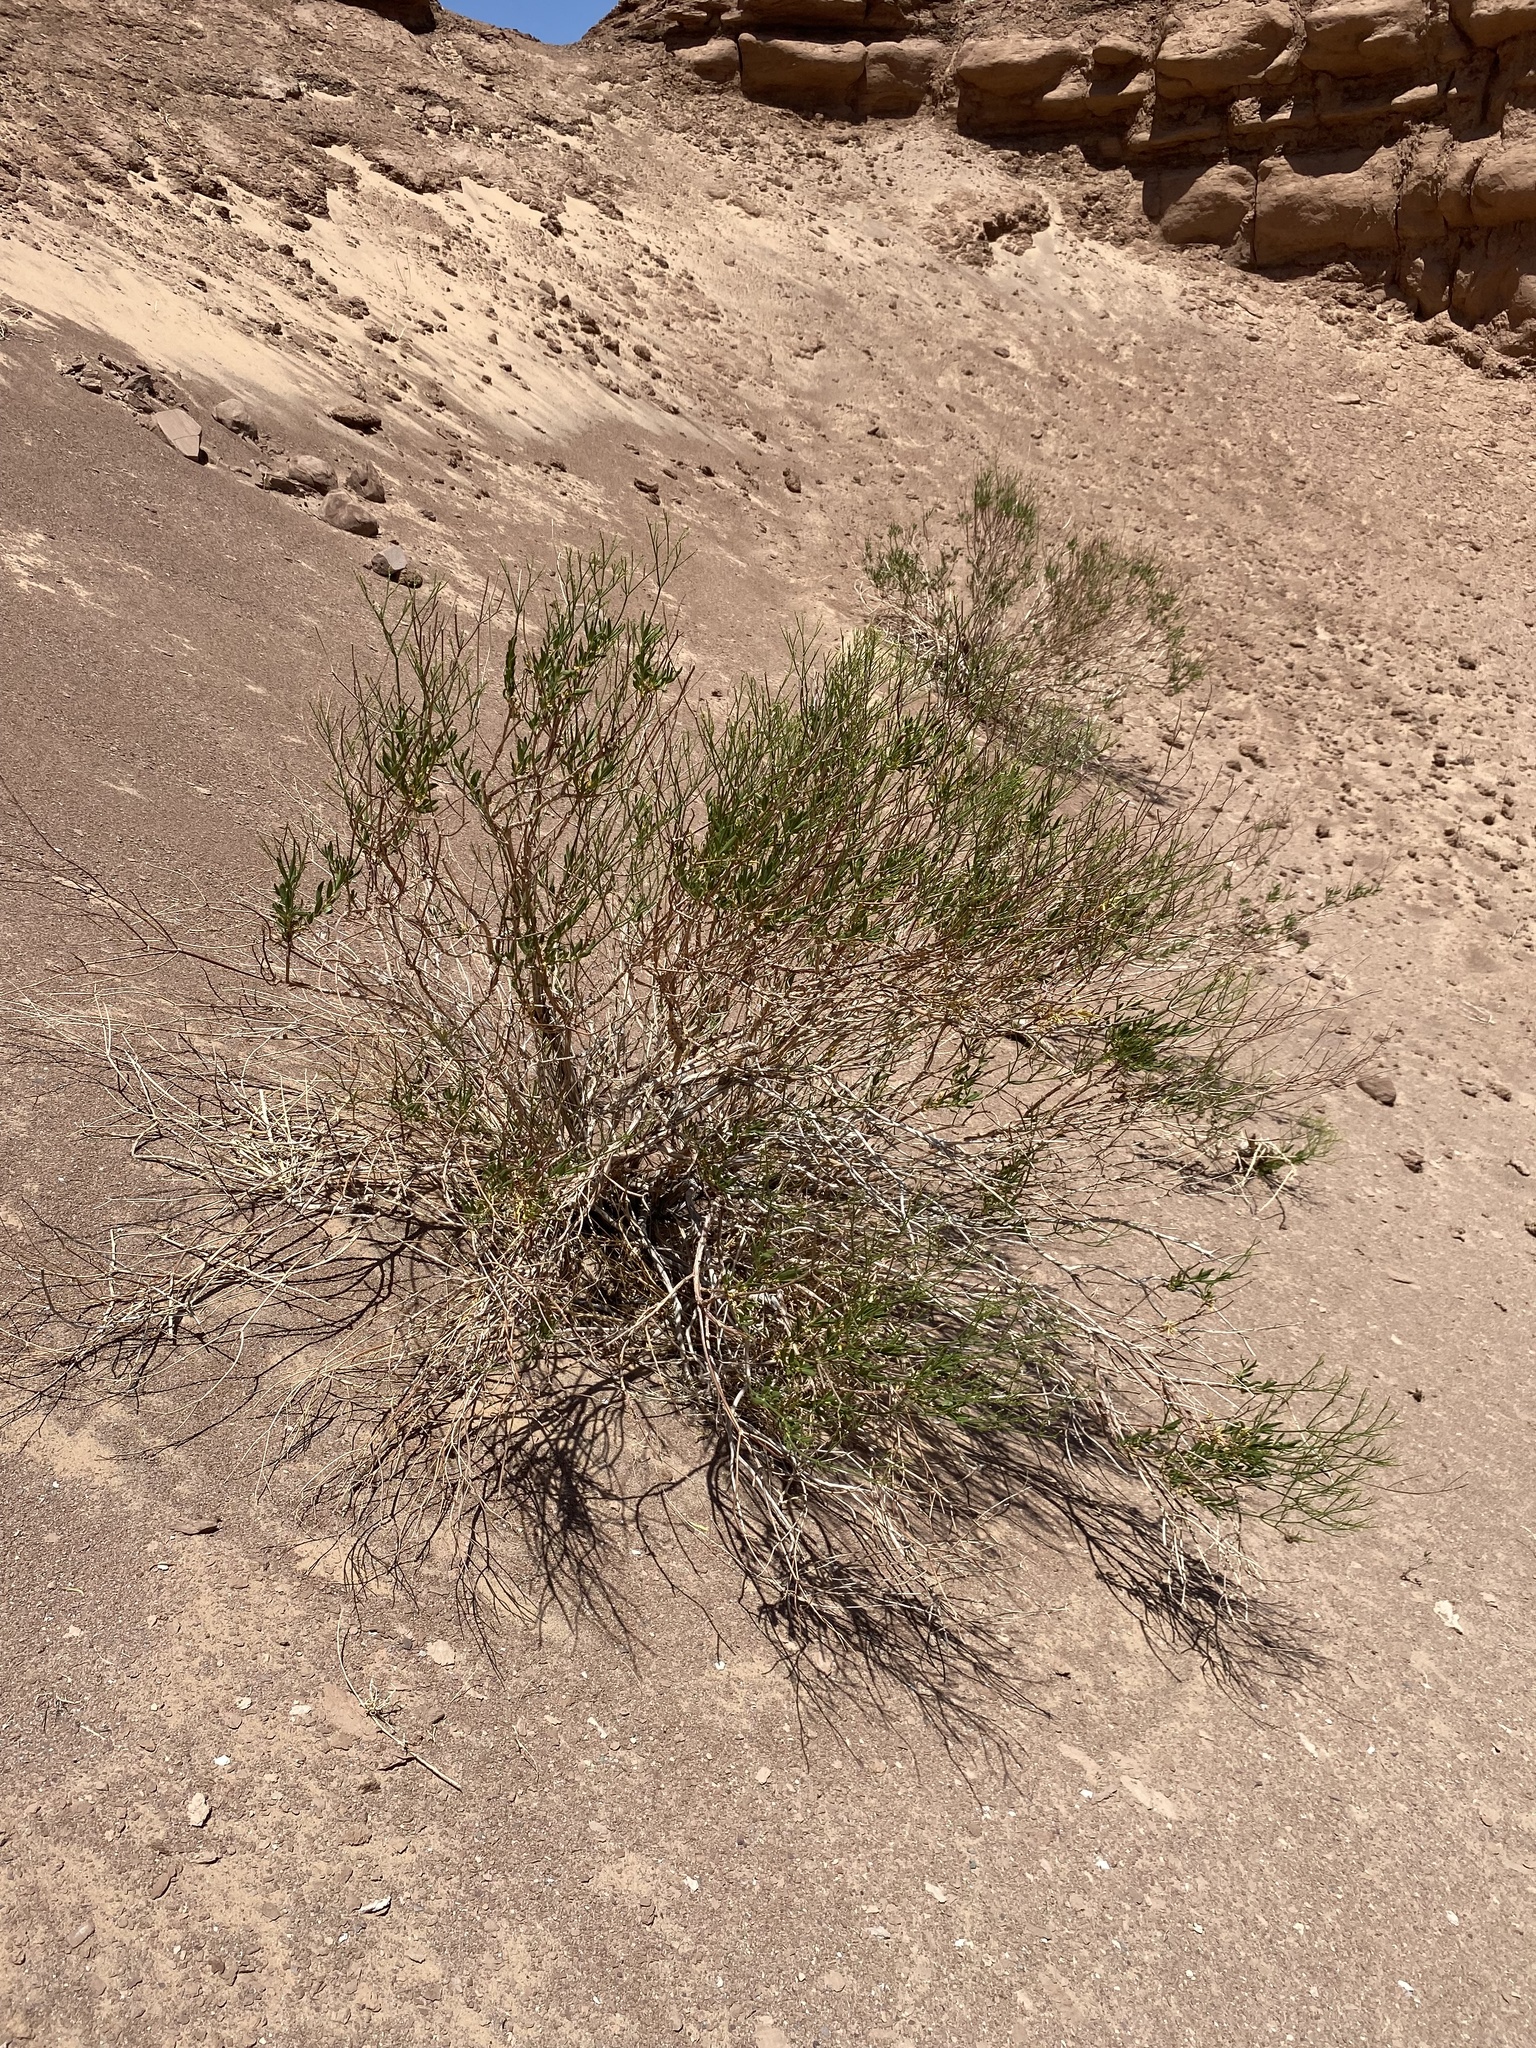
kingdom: Plantae
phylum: Tracheophyta
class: Magnoliopsida
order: Caryophyllales
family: Polygonaceae
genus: Eriogonum
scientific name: Eriogonum smithii
